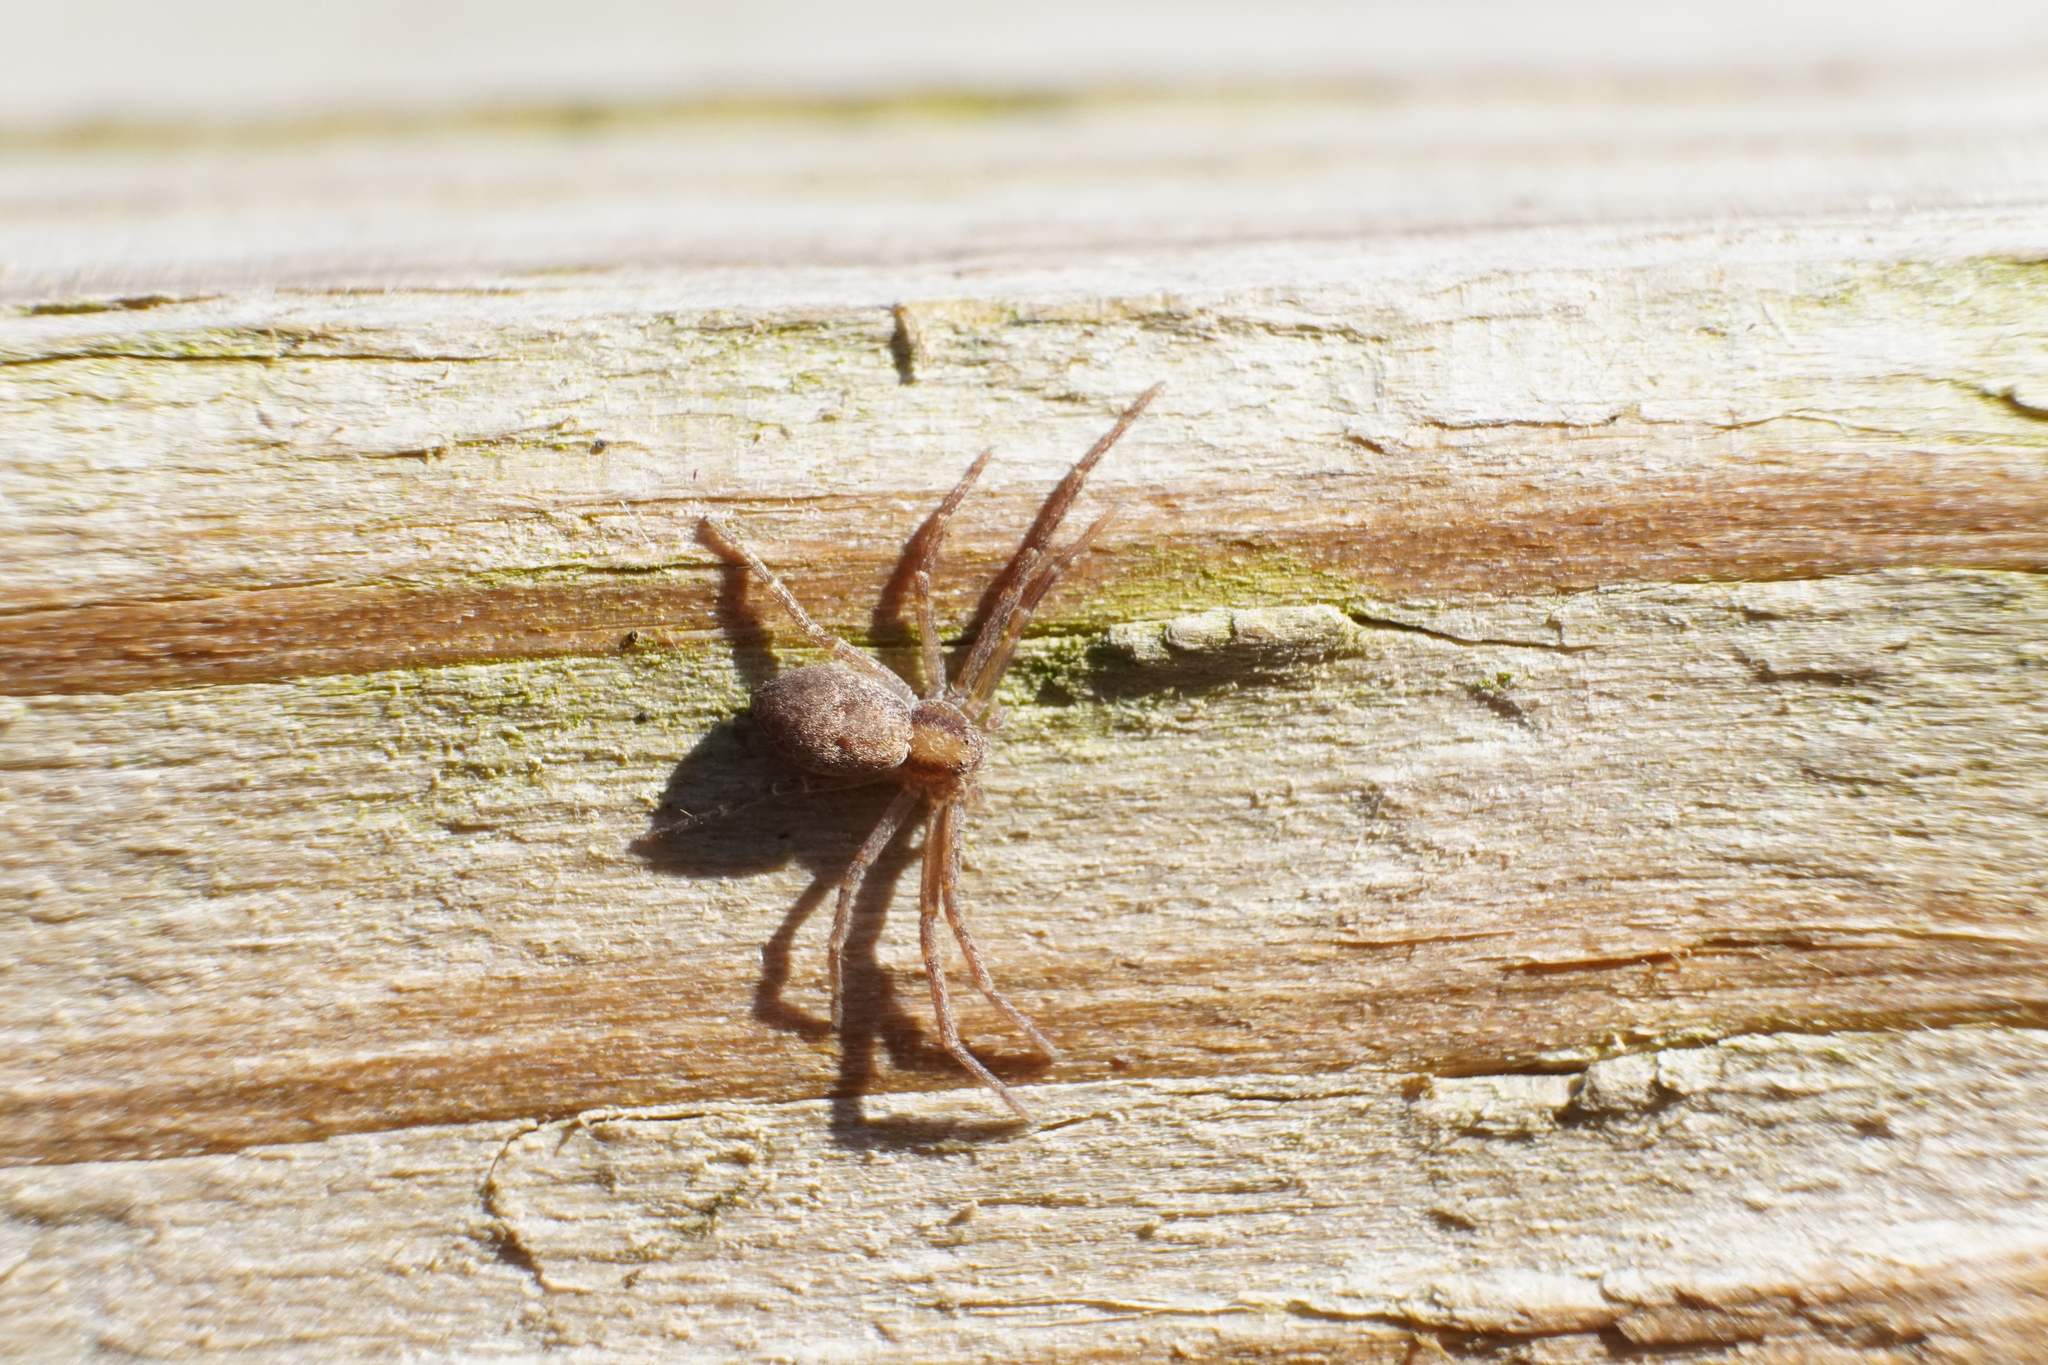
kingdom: Animalia
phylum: Arthropoda
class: Arachnida
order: Araneae
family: Philodromidae
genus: Philodromus
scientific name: Philodromus
